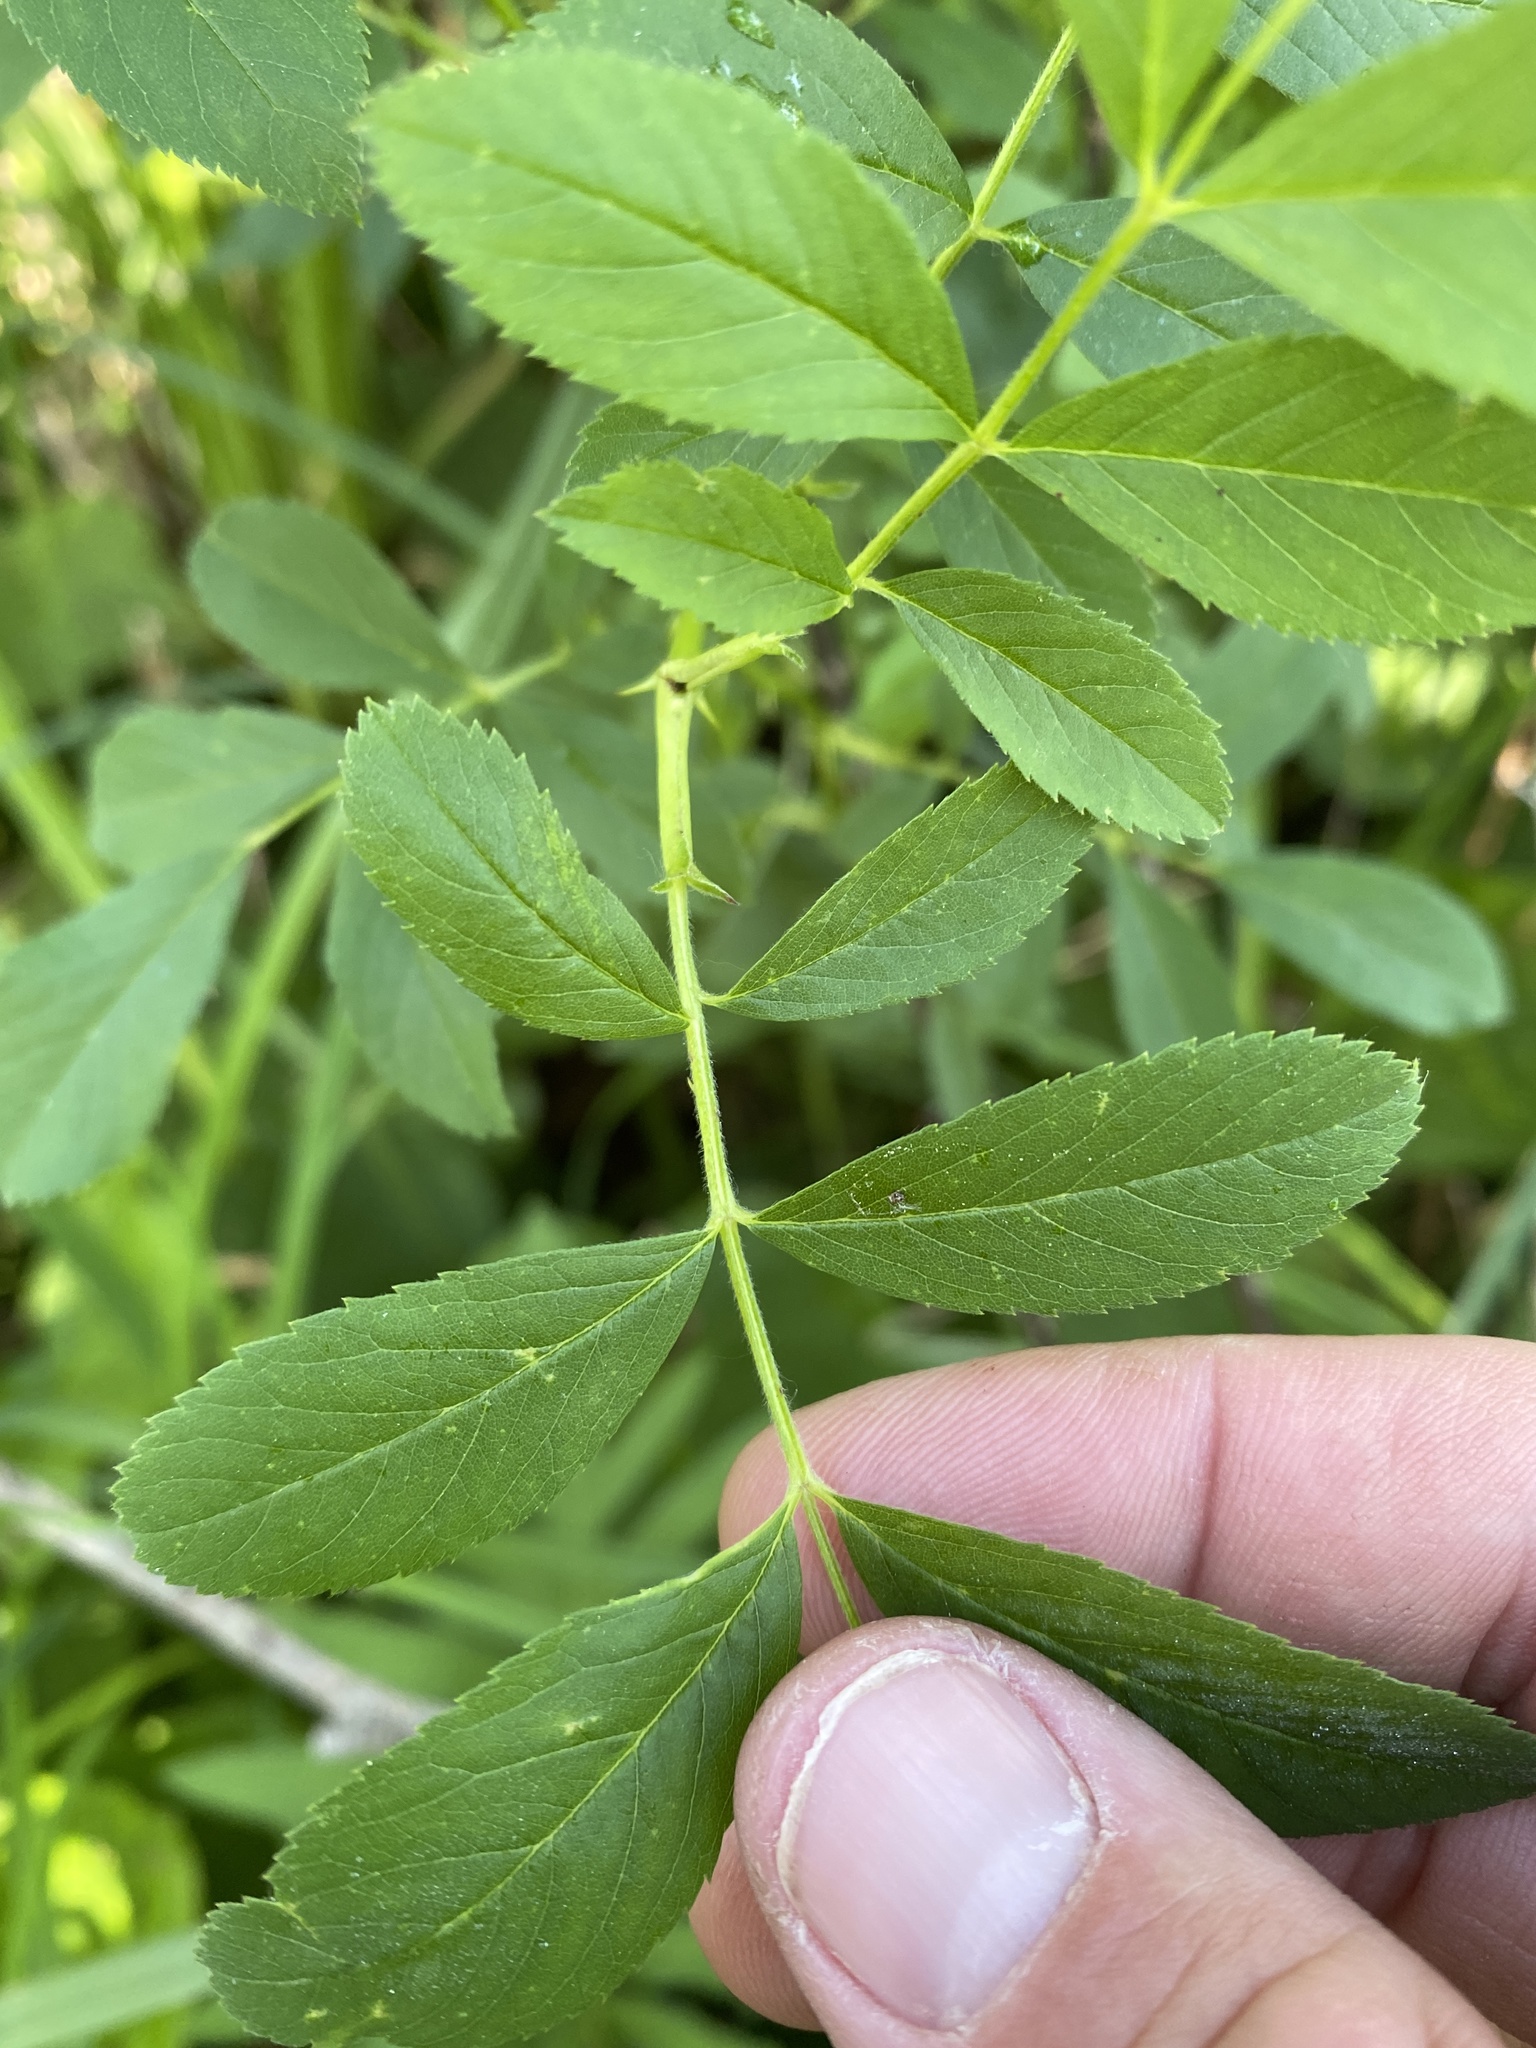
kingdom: Plantae
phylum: Tracheophyta
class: Magnoliopsida
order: Rosales
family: Rosaceae
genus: Rosa
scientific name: Rosa palustris
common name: Swamp rose
